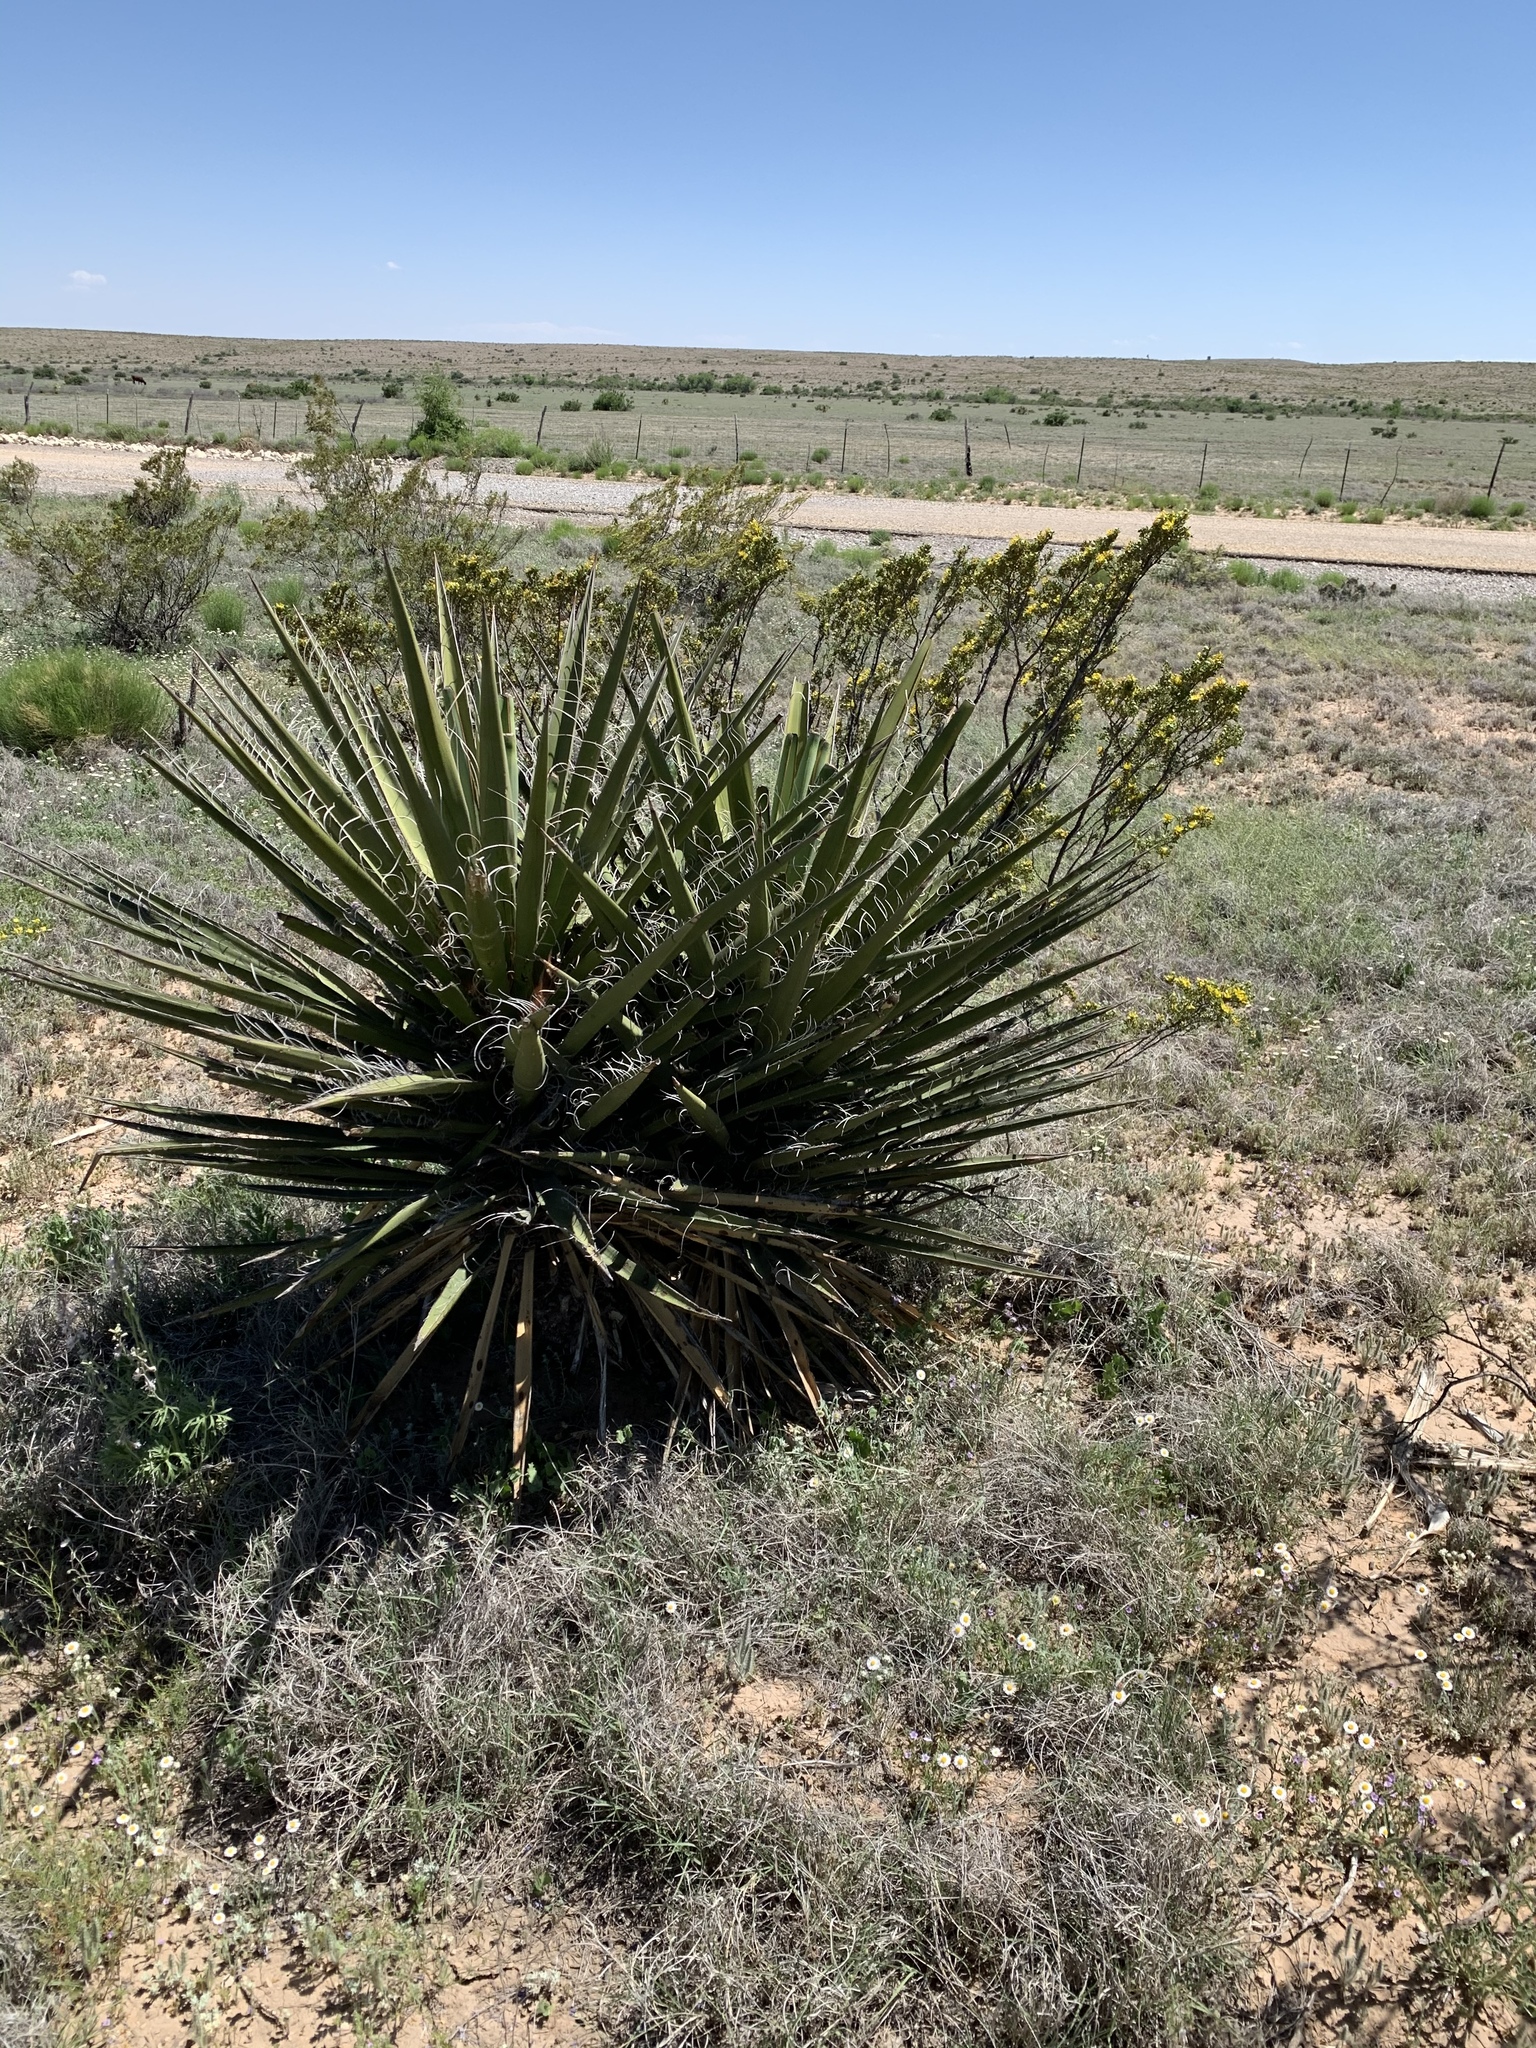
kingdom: Plantae
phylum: Tracheophyta
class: Liliopsida
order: Asparagales
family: Asparagaceae
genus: Yucca
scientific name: Yucca treculiana
